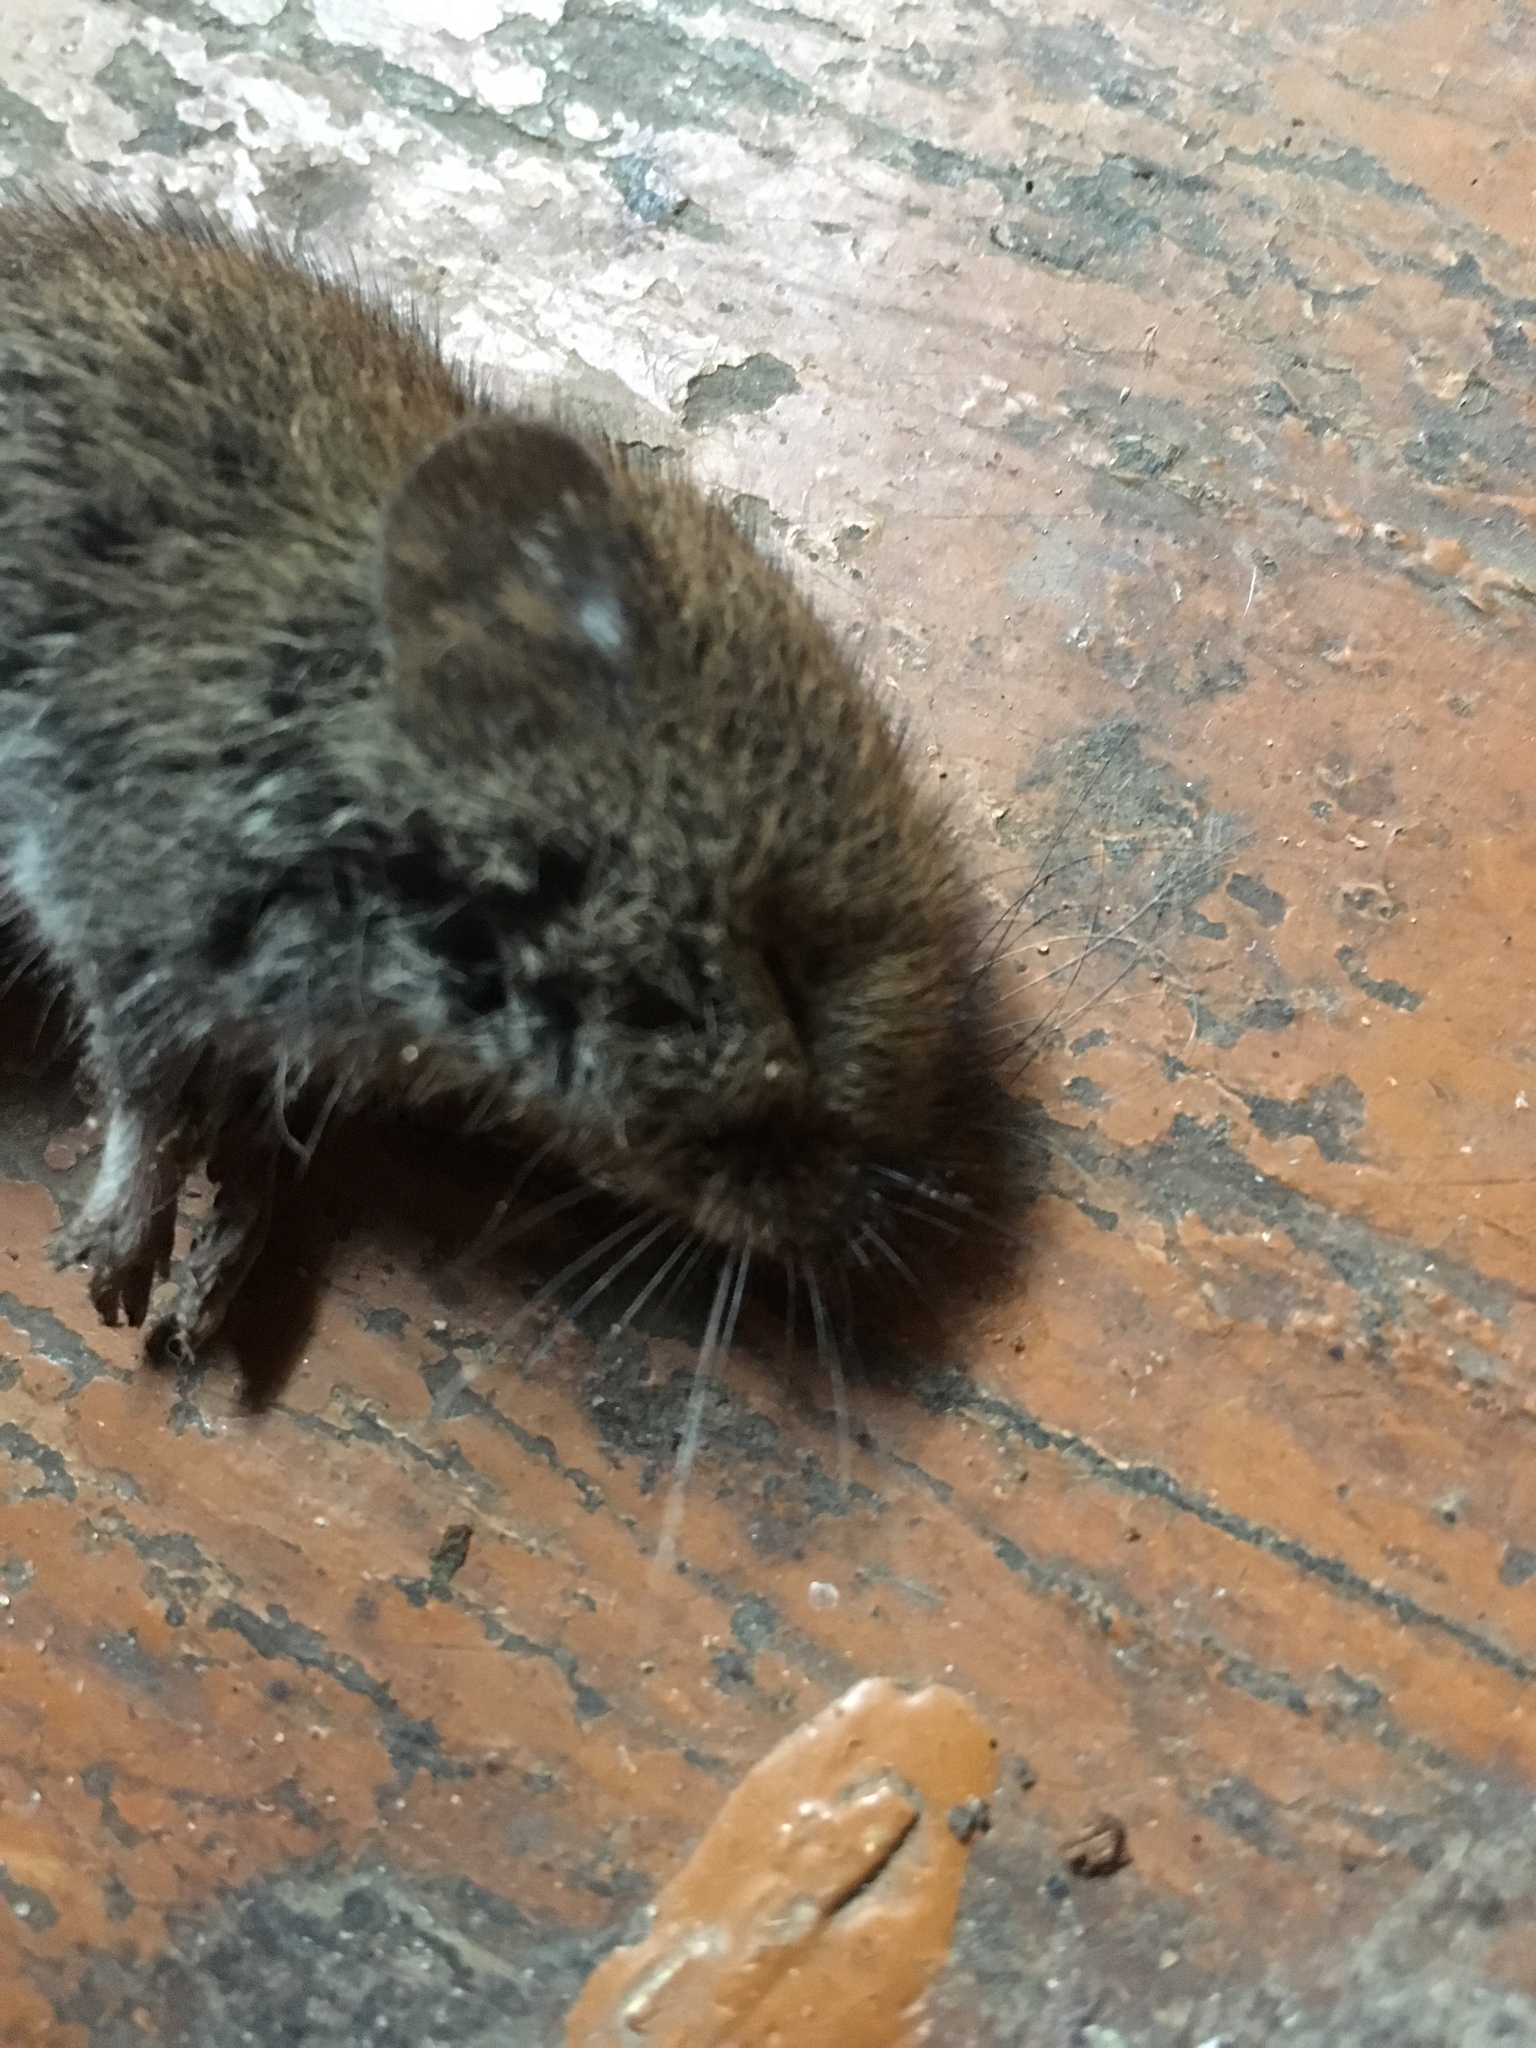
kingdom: Animalia
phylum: Chordata
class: Mammalia
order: Rodentia
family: Cricetidae
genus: Myodes
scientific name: Myodes glareolus
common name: Bank vole
